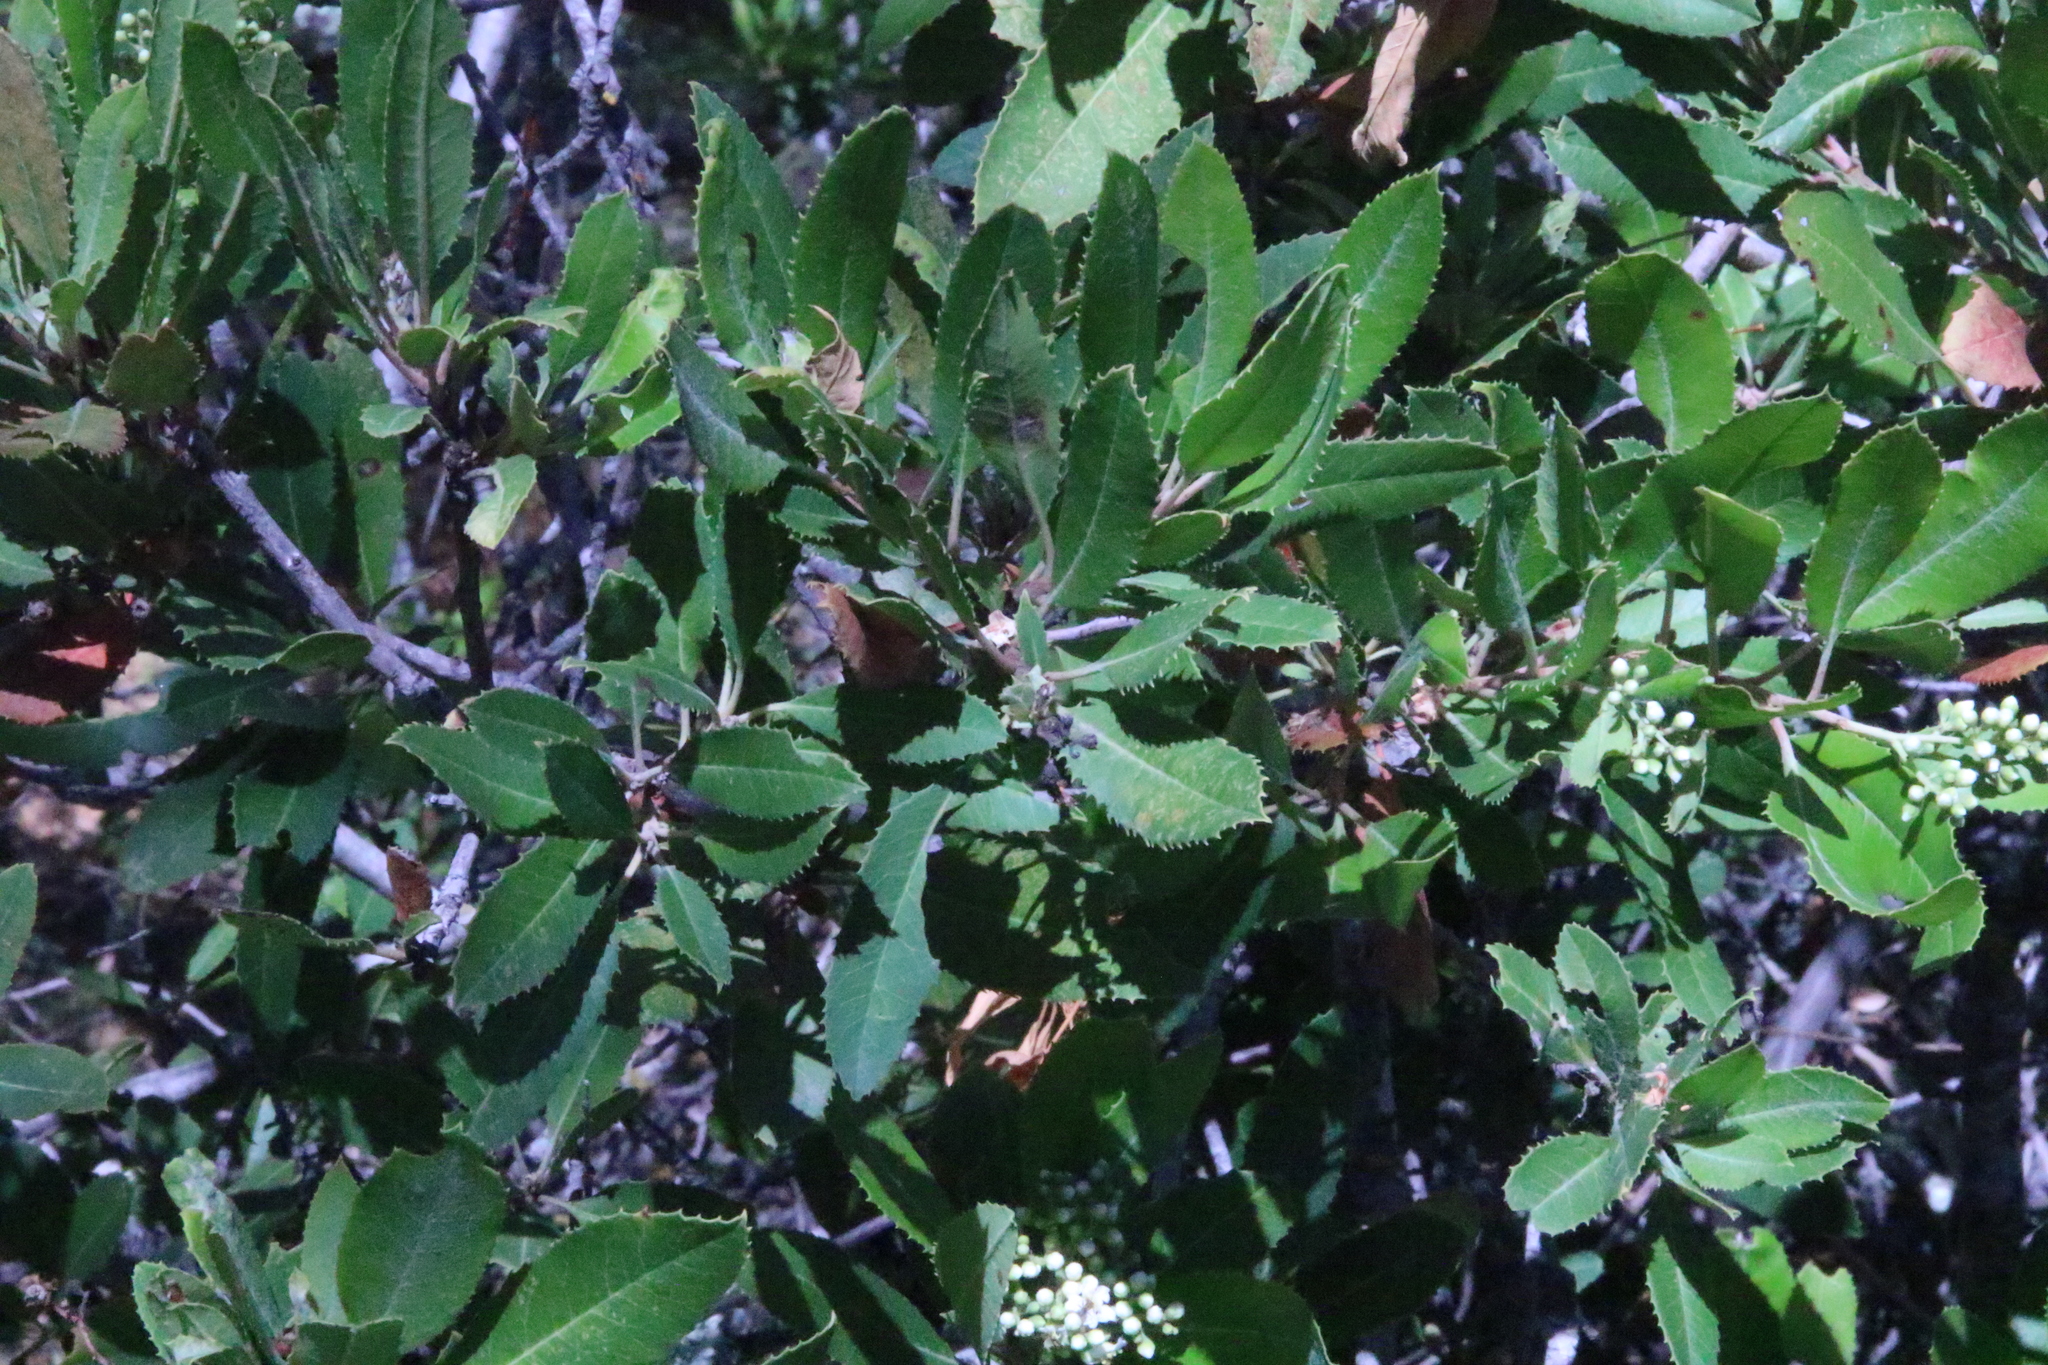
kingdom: Plantae
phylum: Tracheophyta
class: Magnoliopsida
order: Rosales
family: Rosaceae
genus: Heteromeles
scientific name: Heteromeles arbutifolia
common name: California-holly
